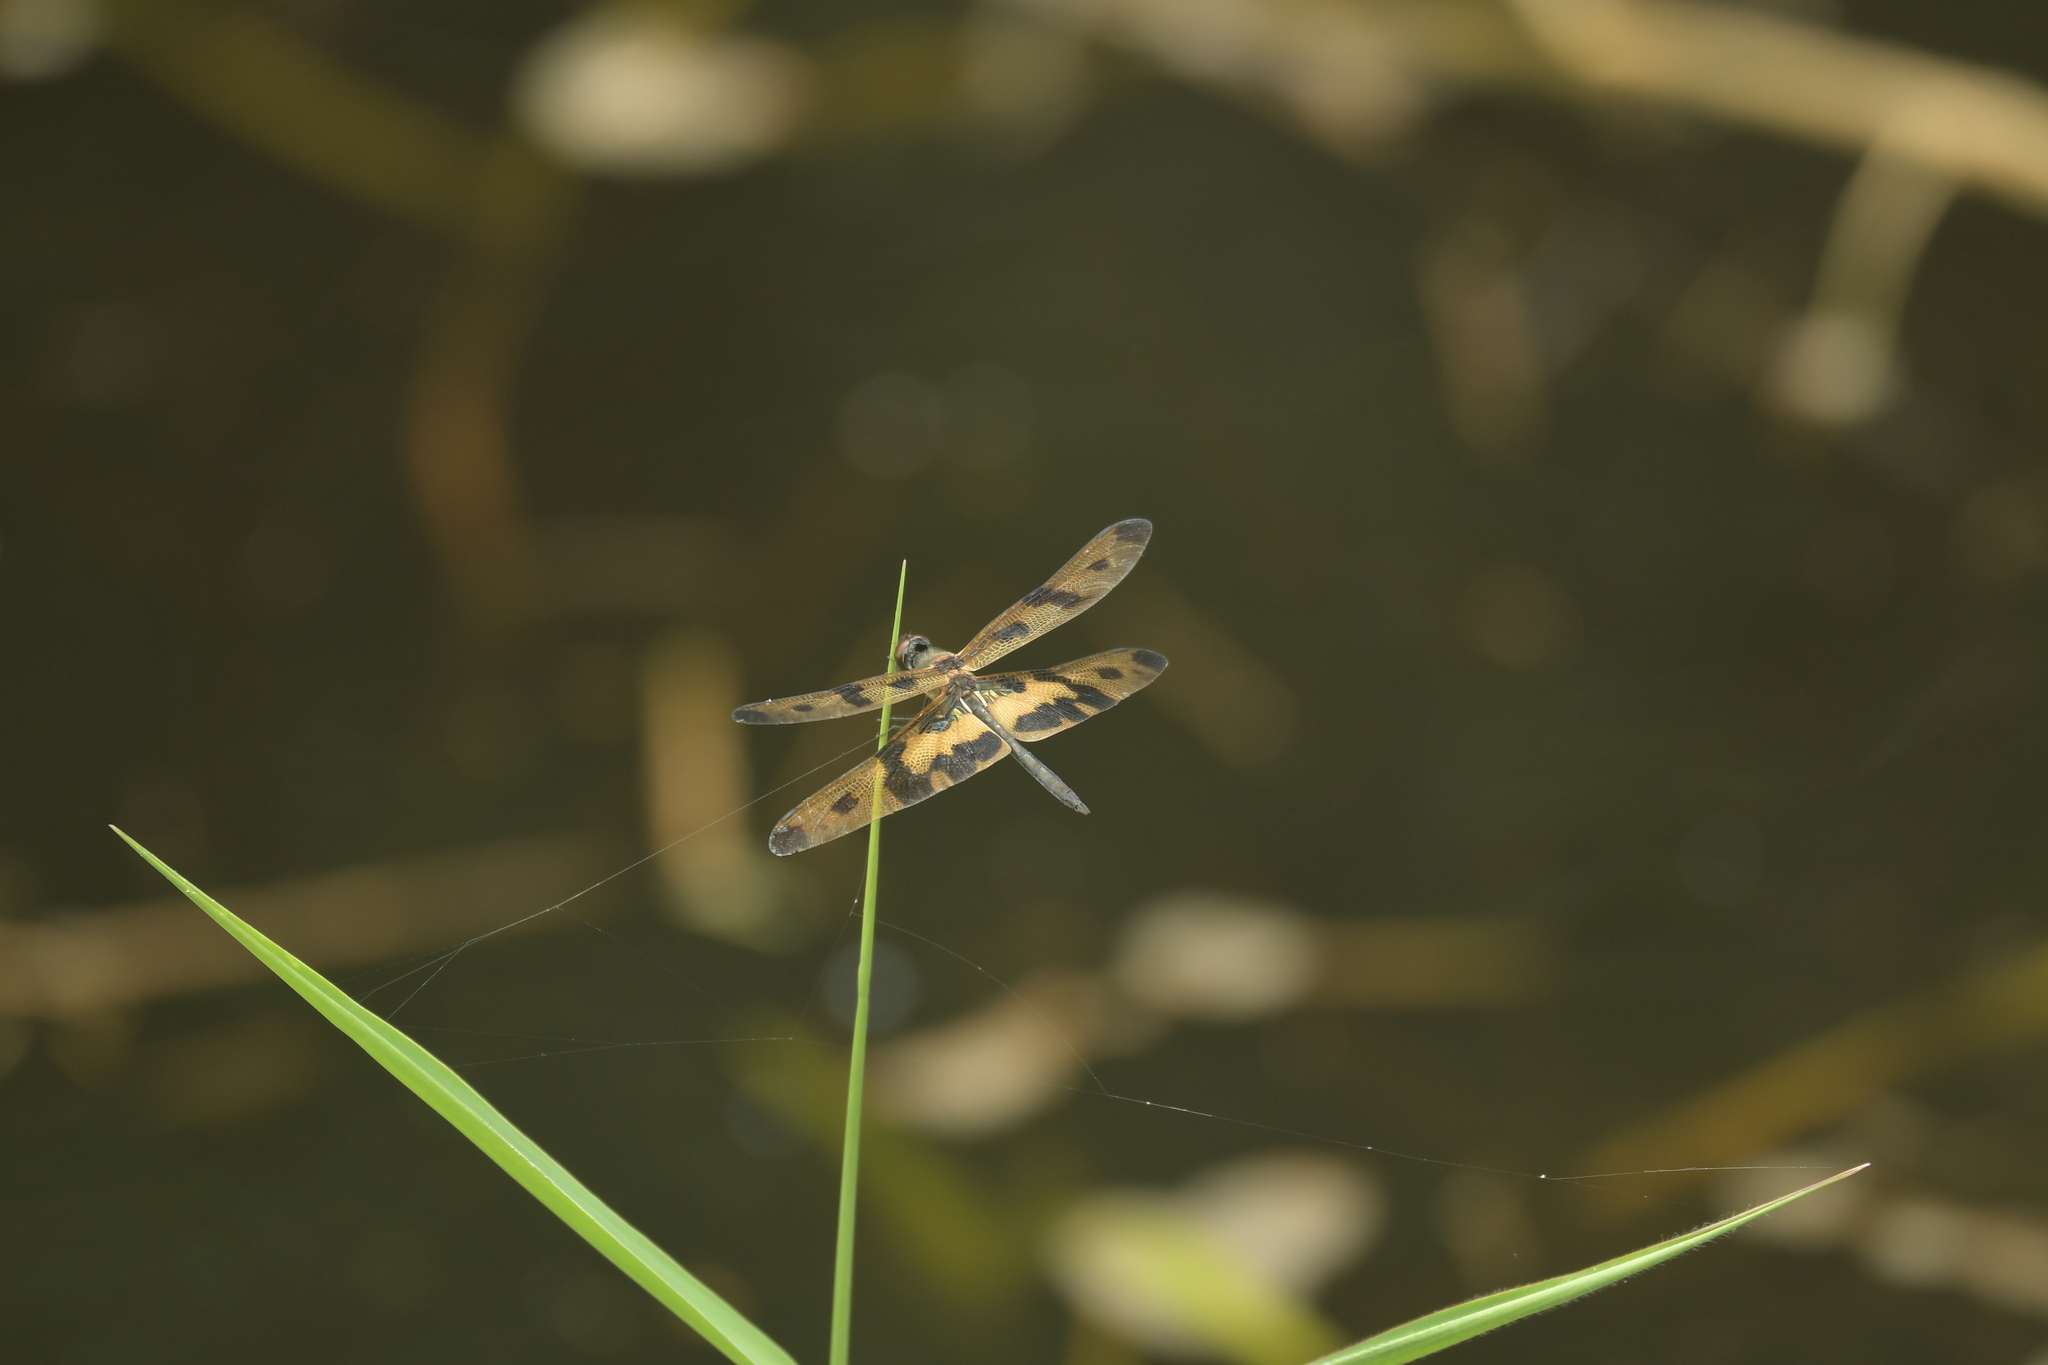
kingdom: Animalia
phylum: Arthropoda
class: Insecta
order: Odonata
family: Libellulidae
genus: Rhyothemis
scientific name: Rhyothemis variegata
